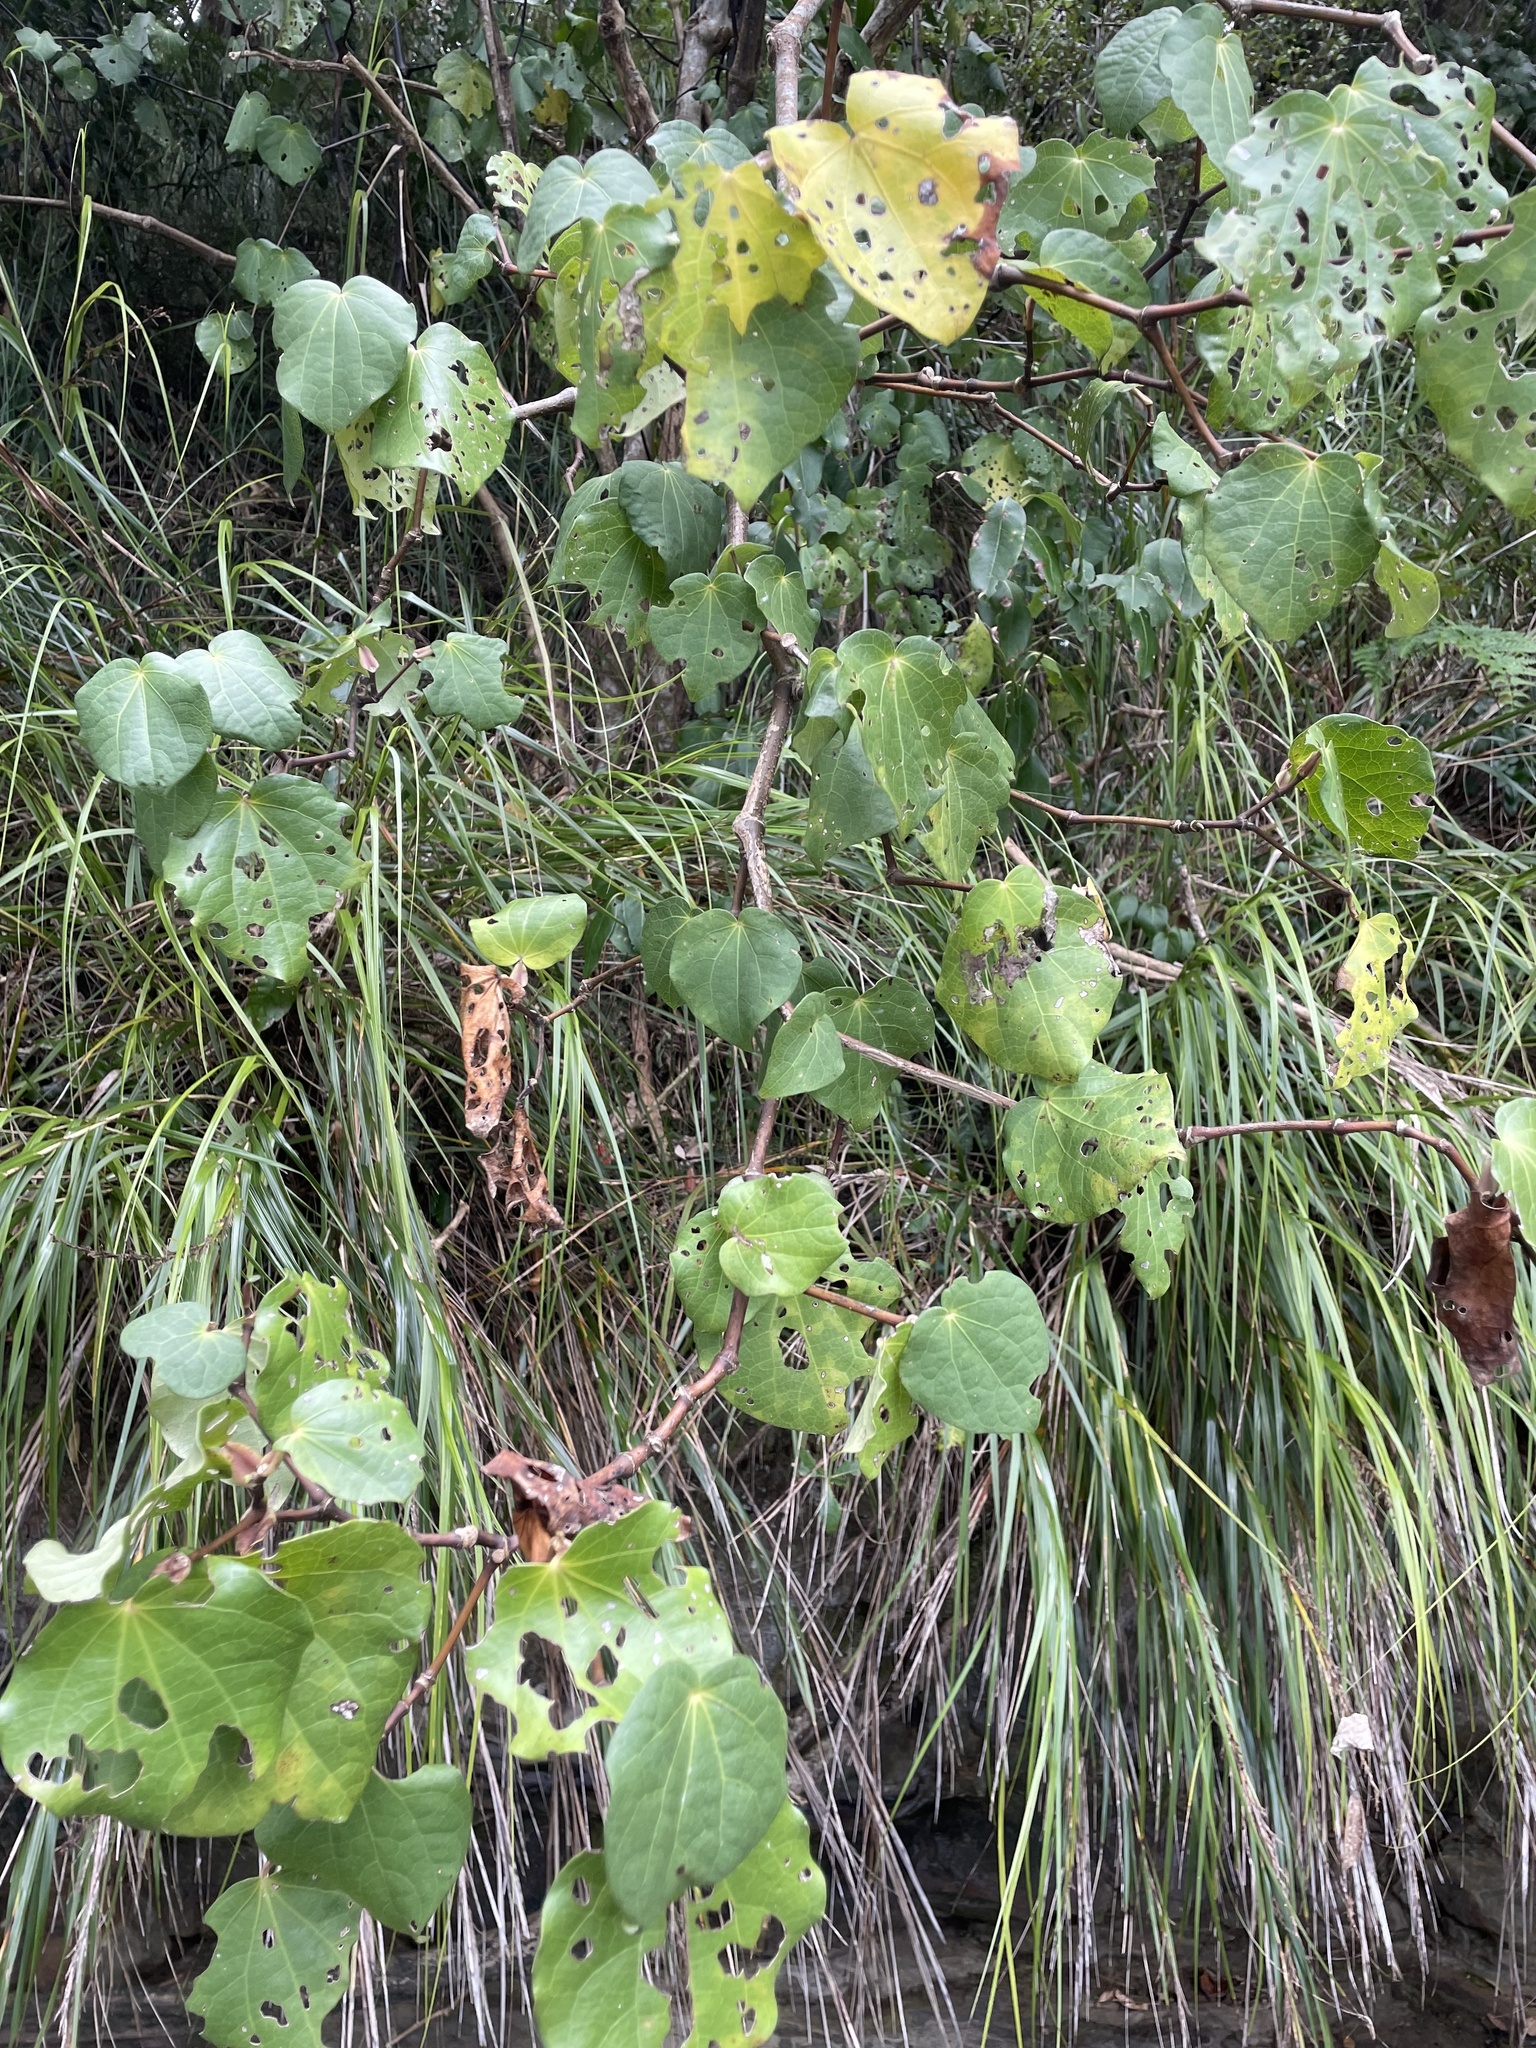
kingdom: Plantae
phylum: Tracheophyta
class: Magnoliopsida
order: Piperales
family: Piperaceae
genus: Macropiper
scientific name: Macropiper excelsum
